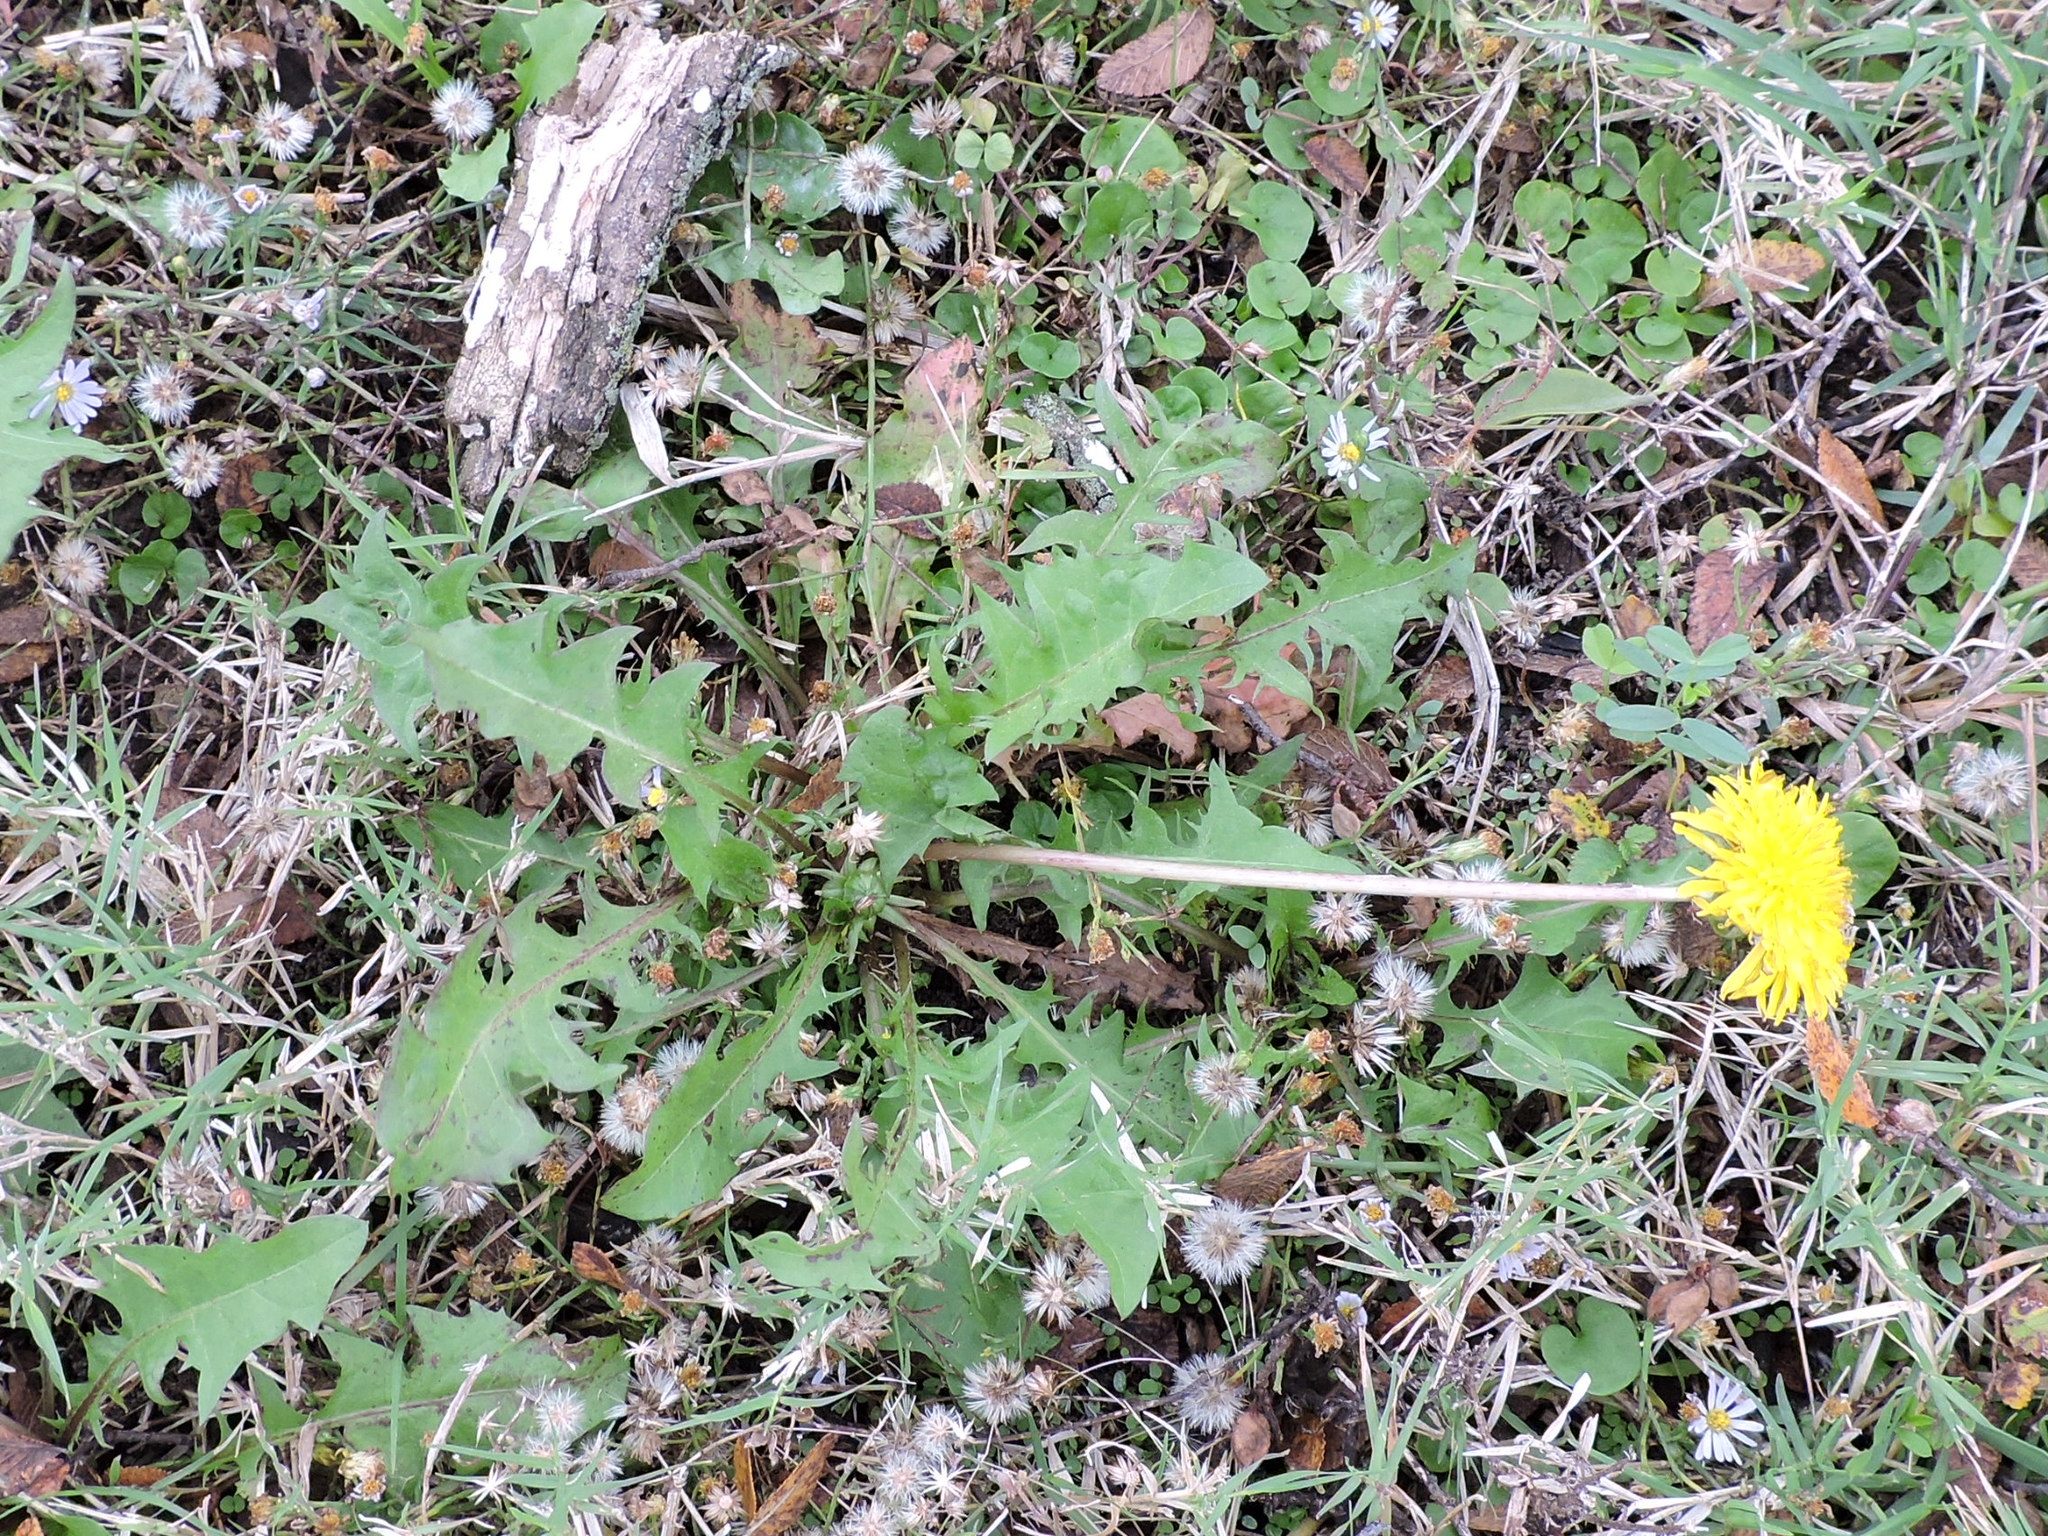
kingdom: Plantae
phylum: Tracheophyta
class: Magnoliopsida
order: Asterales
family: Asteraceae
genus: Taraxacum
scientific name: Taraxacum officinale
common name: Common dandelion
